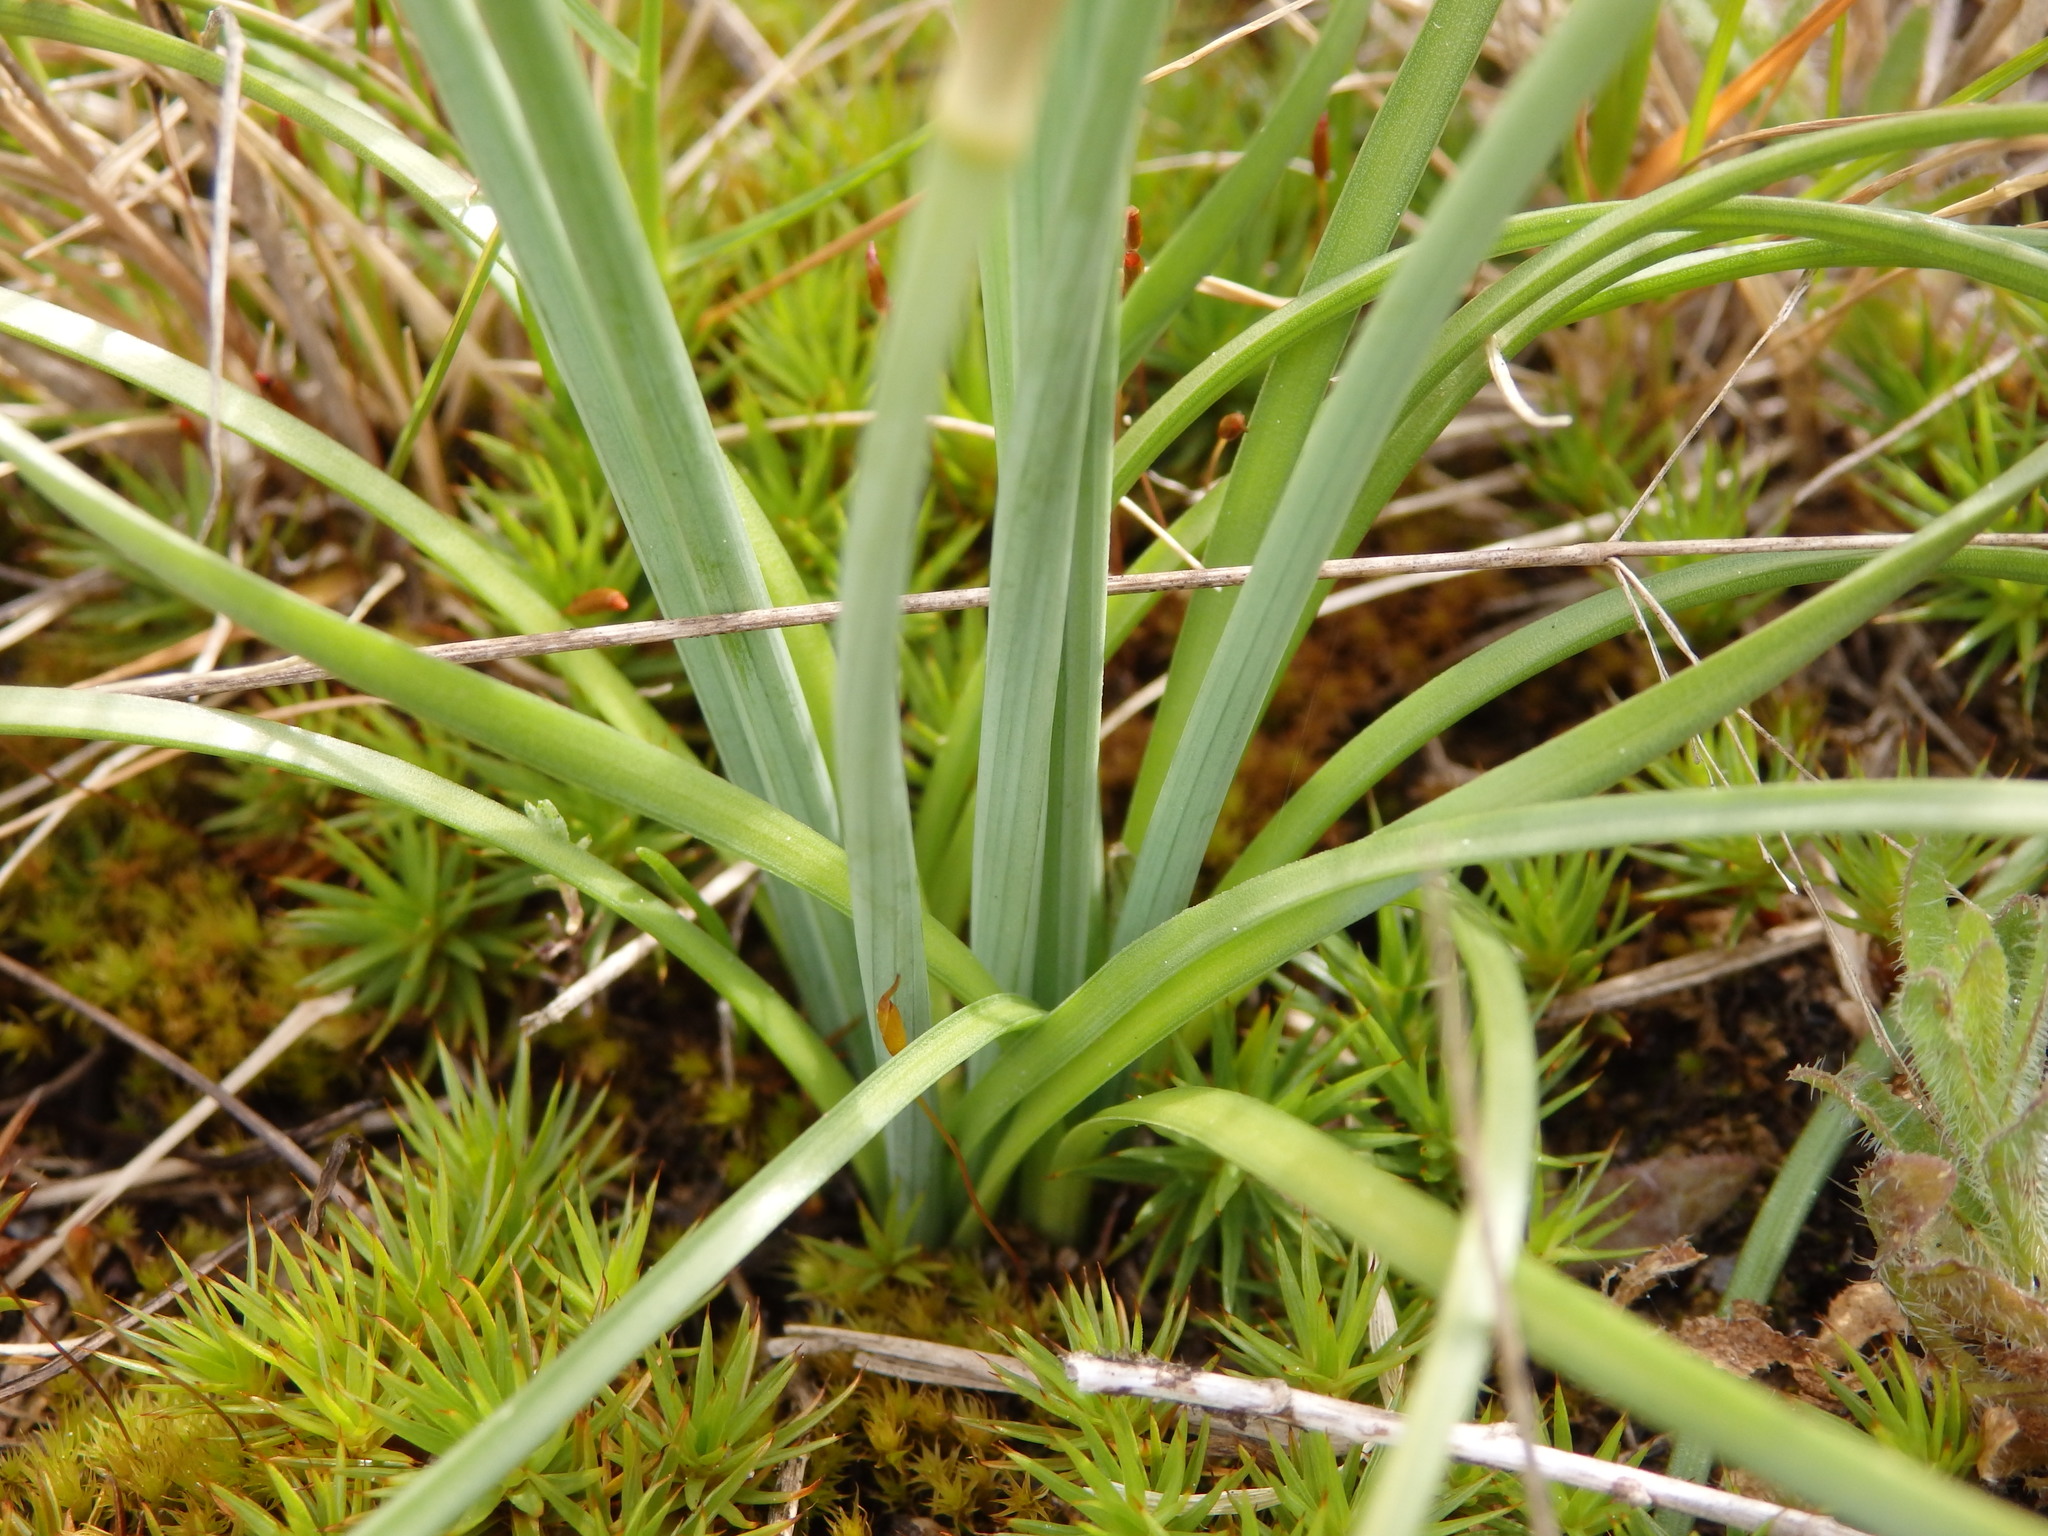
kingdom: Plantae
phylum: Tracheophyta
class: Liliopsida
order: Asparagales
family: Amaryllidaceae
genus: Narcissus
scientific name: Narcissus bulbocodium
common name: Hoop-petticoat daffodil
